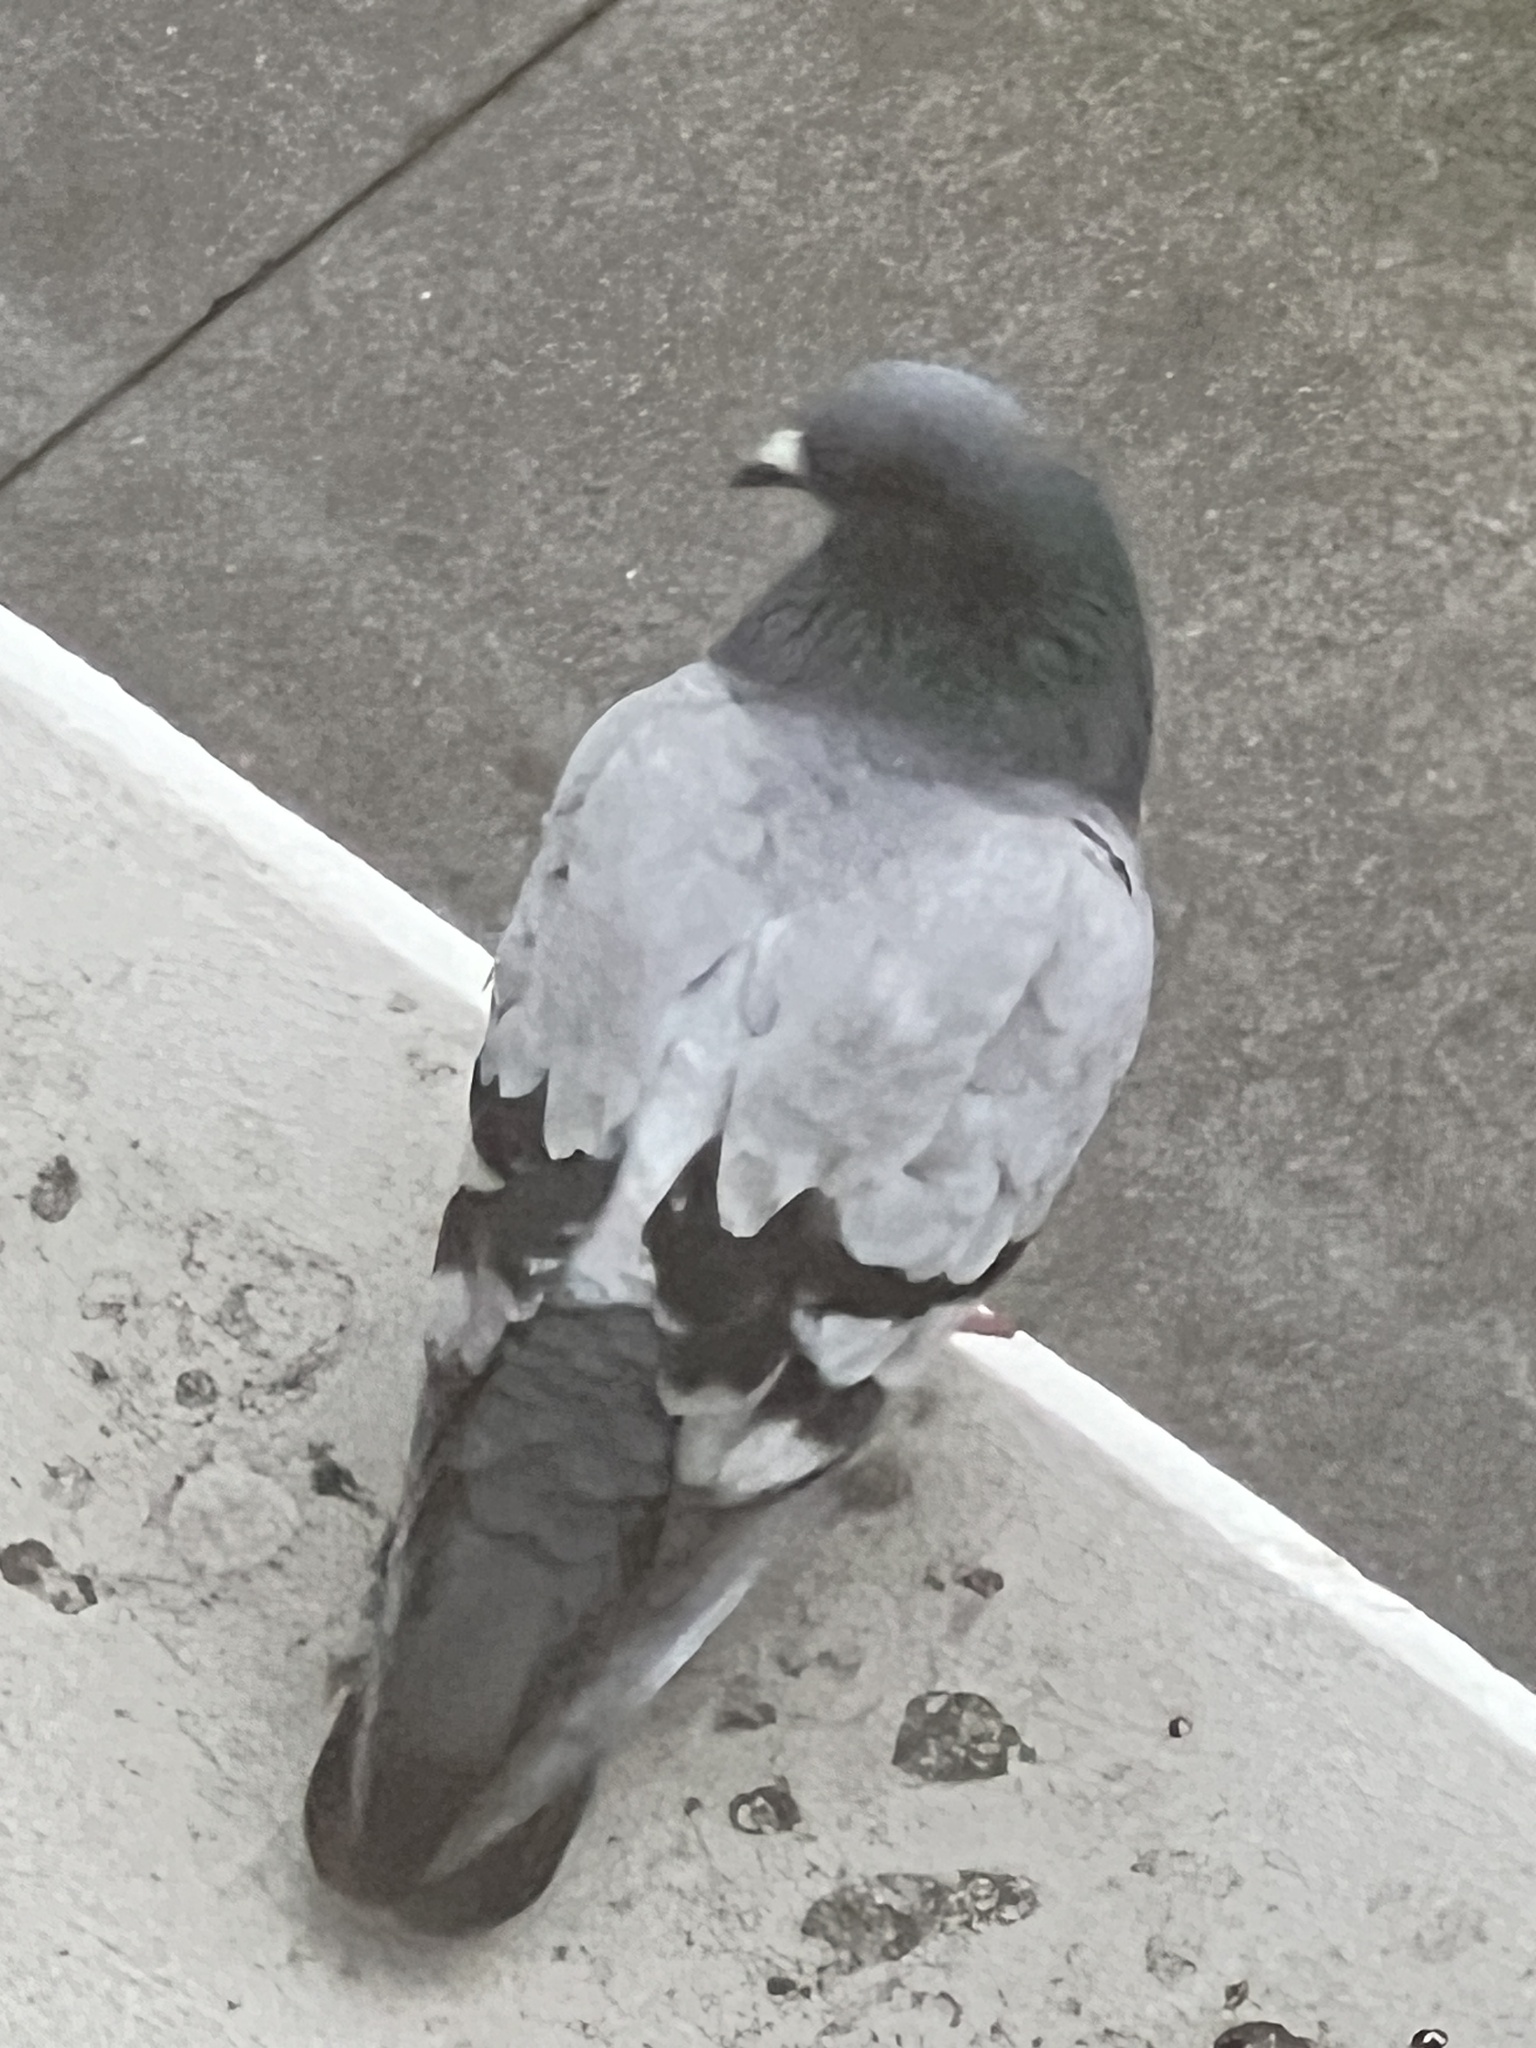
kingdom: Animalia
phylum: Chordata
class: Aves
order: Columbiformes
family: Columbidae
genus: Columba
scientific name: Columba livia
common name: Rock pigeon
